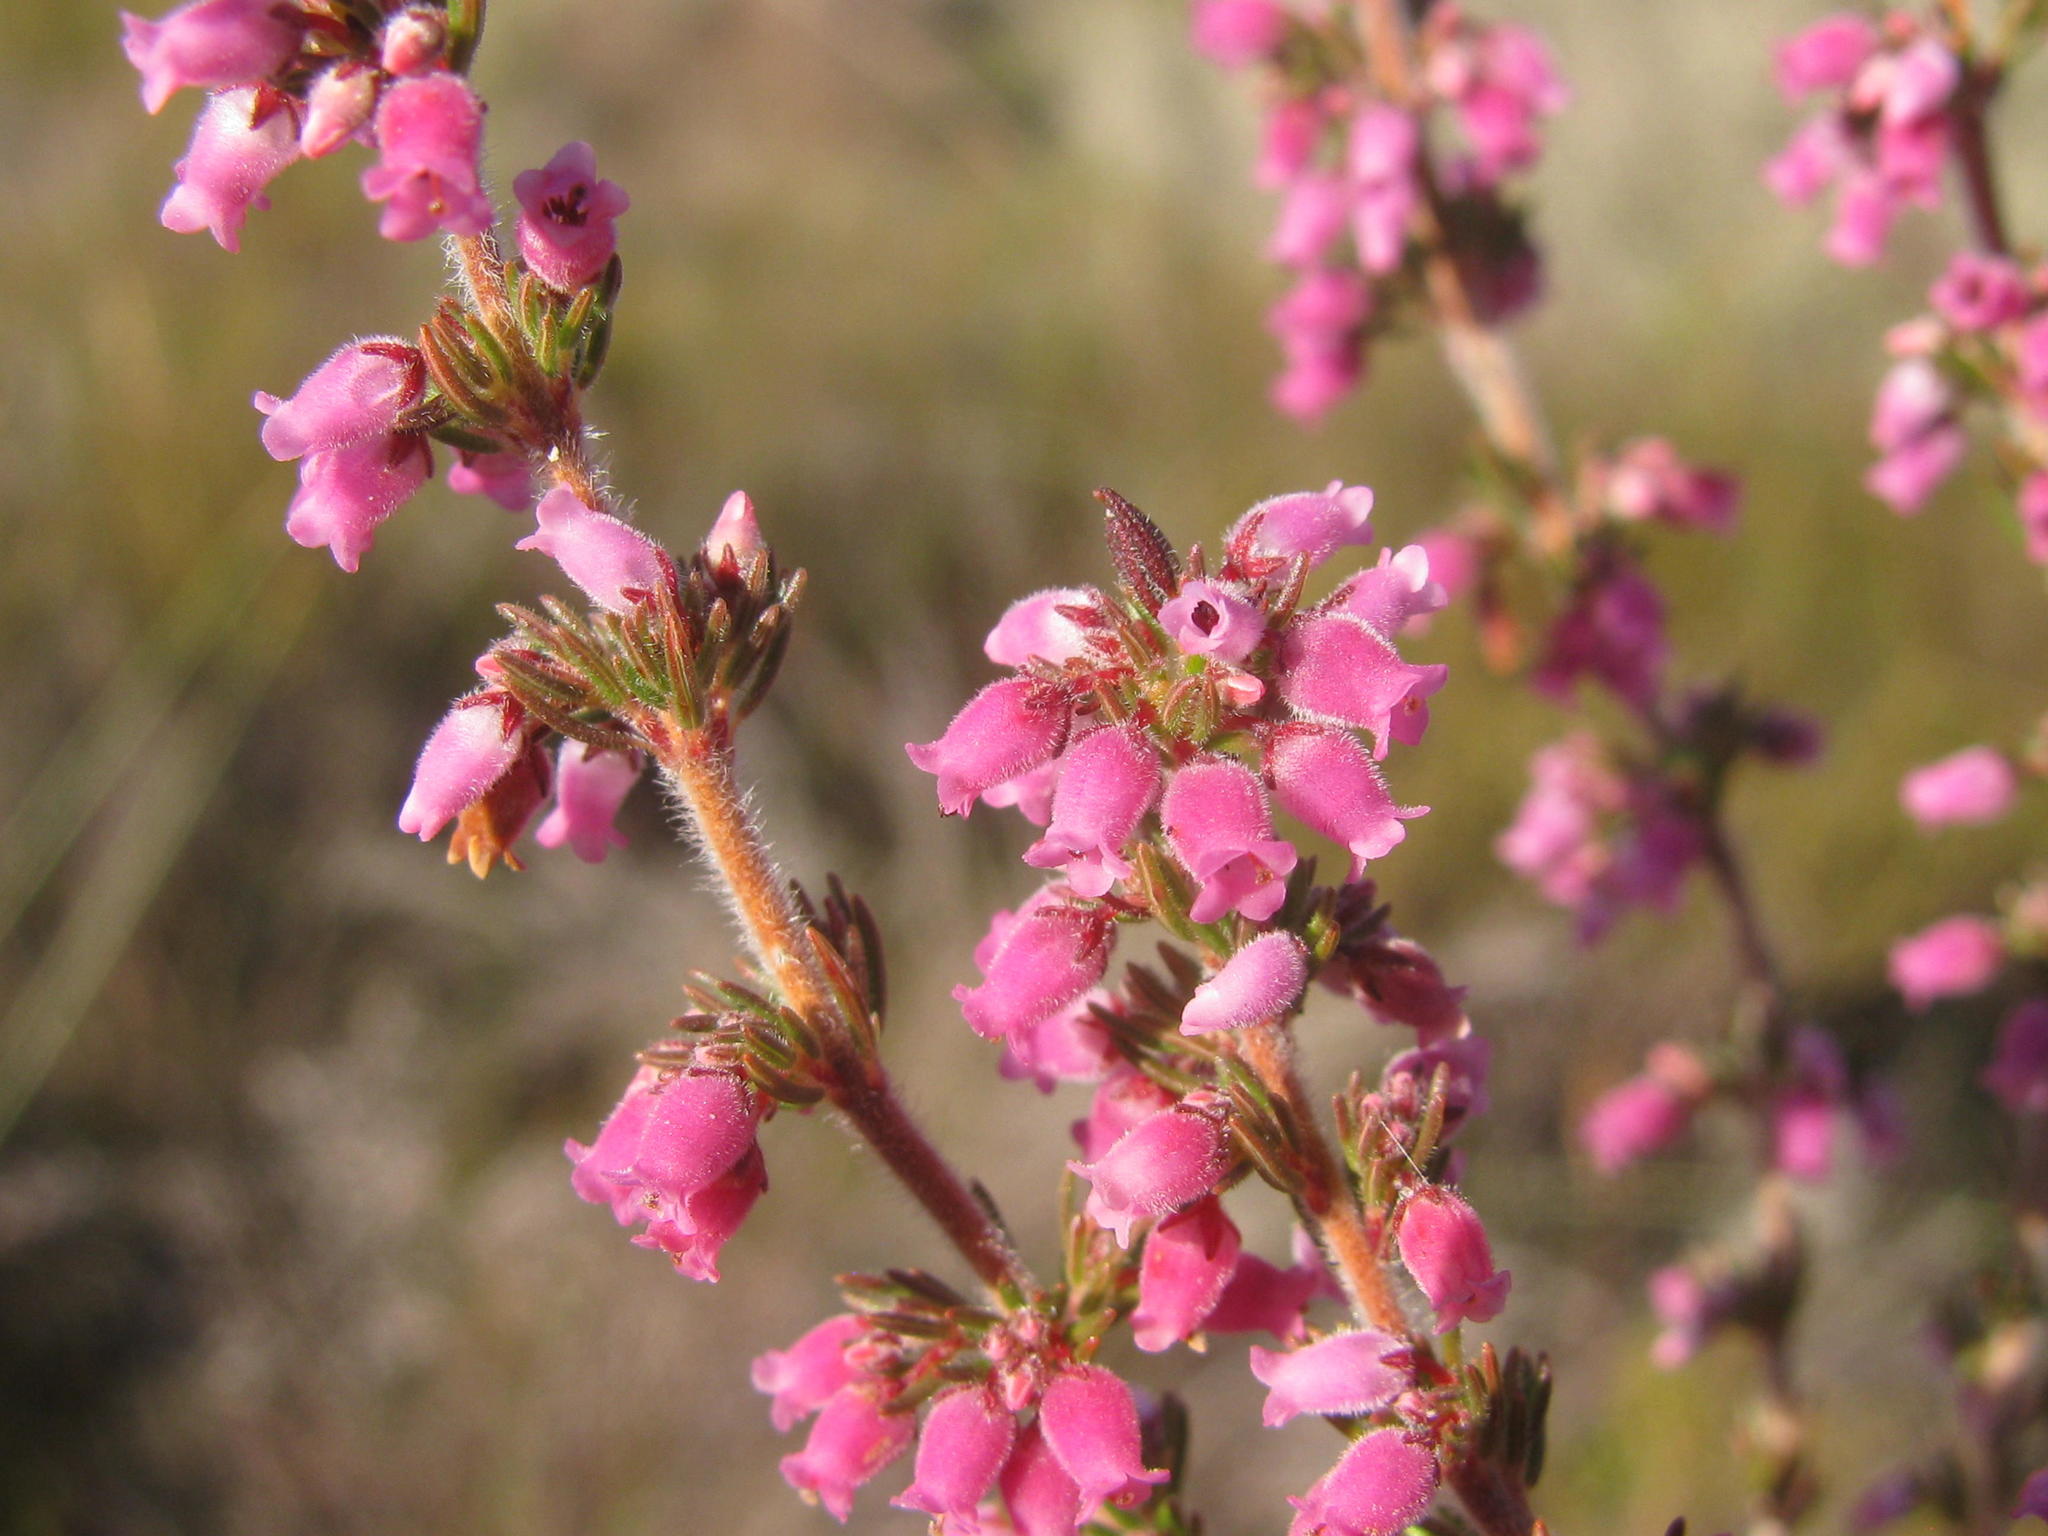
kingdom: Plantae
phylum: Tracheophyta
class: Magnoliopsida
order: Ericales
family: Ericaceae
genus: Erica
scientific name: Erica parviflora
